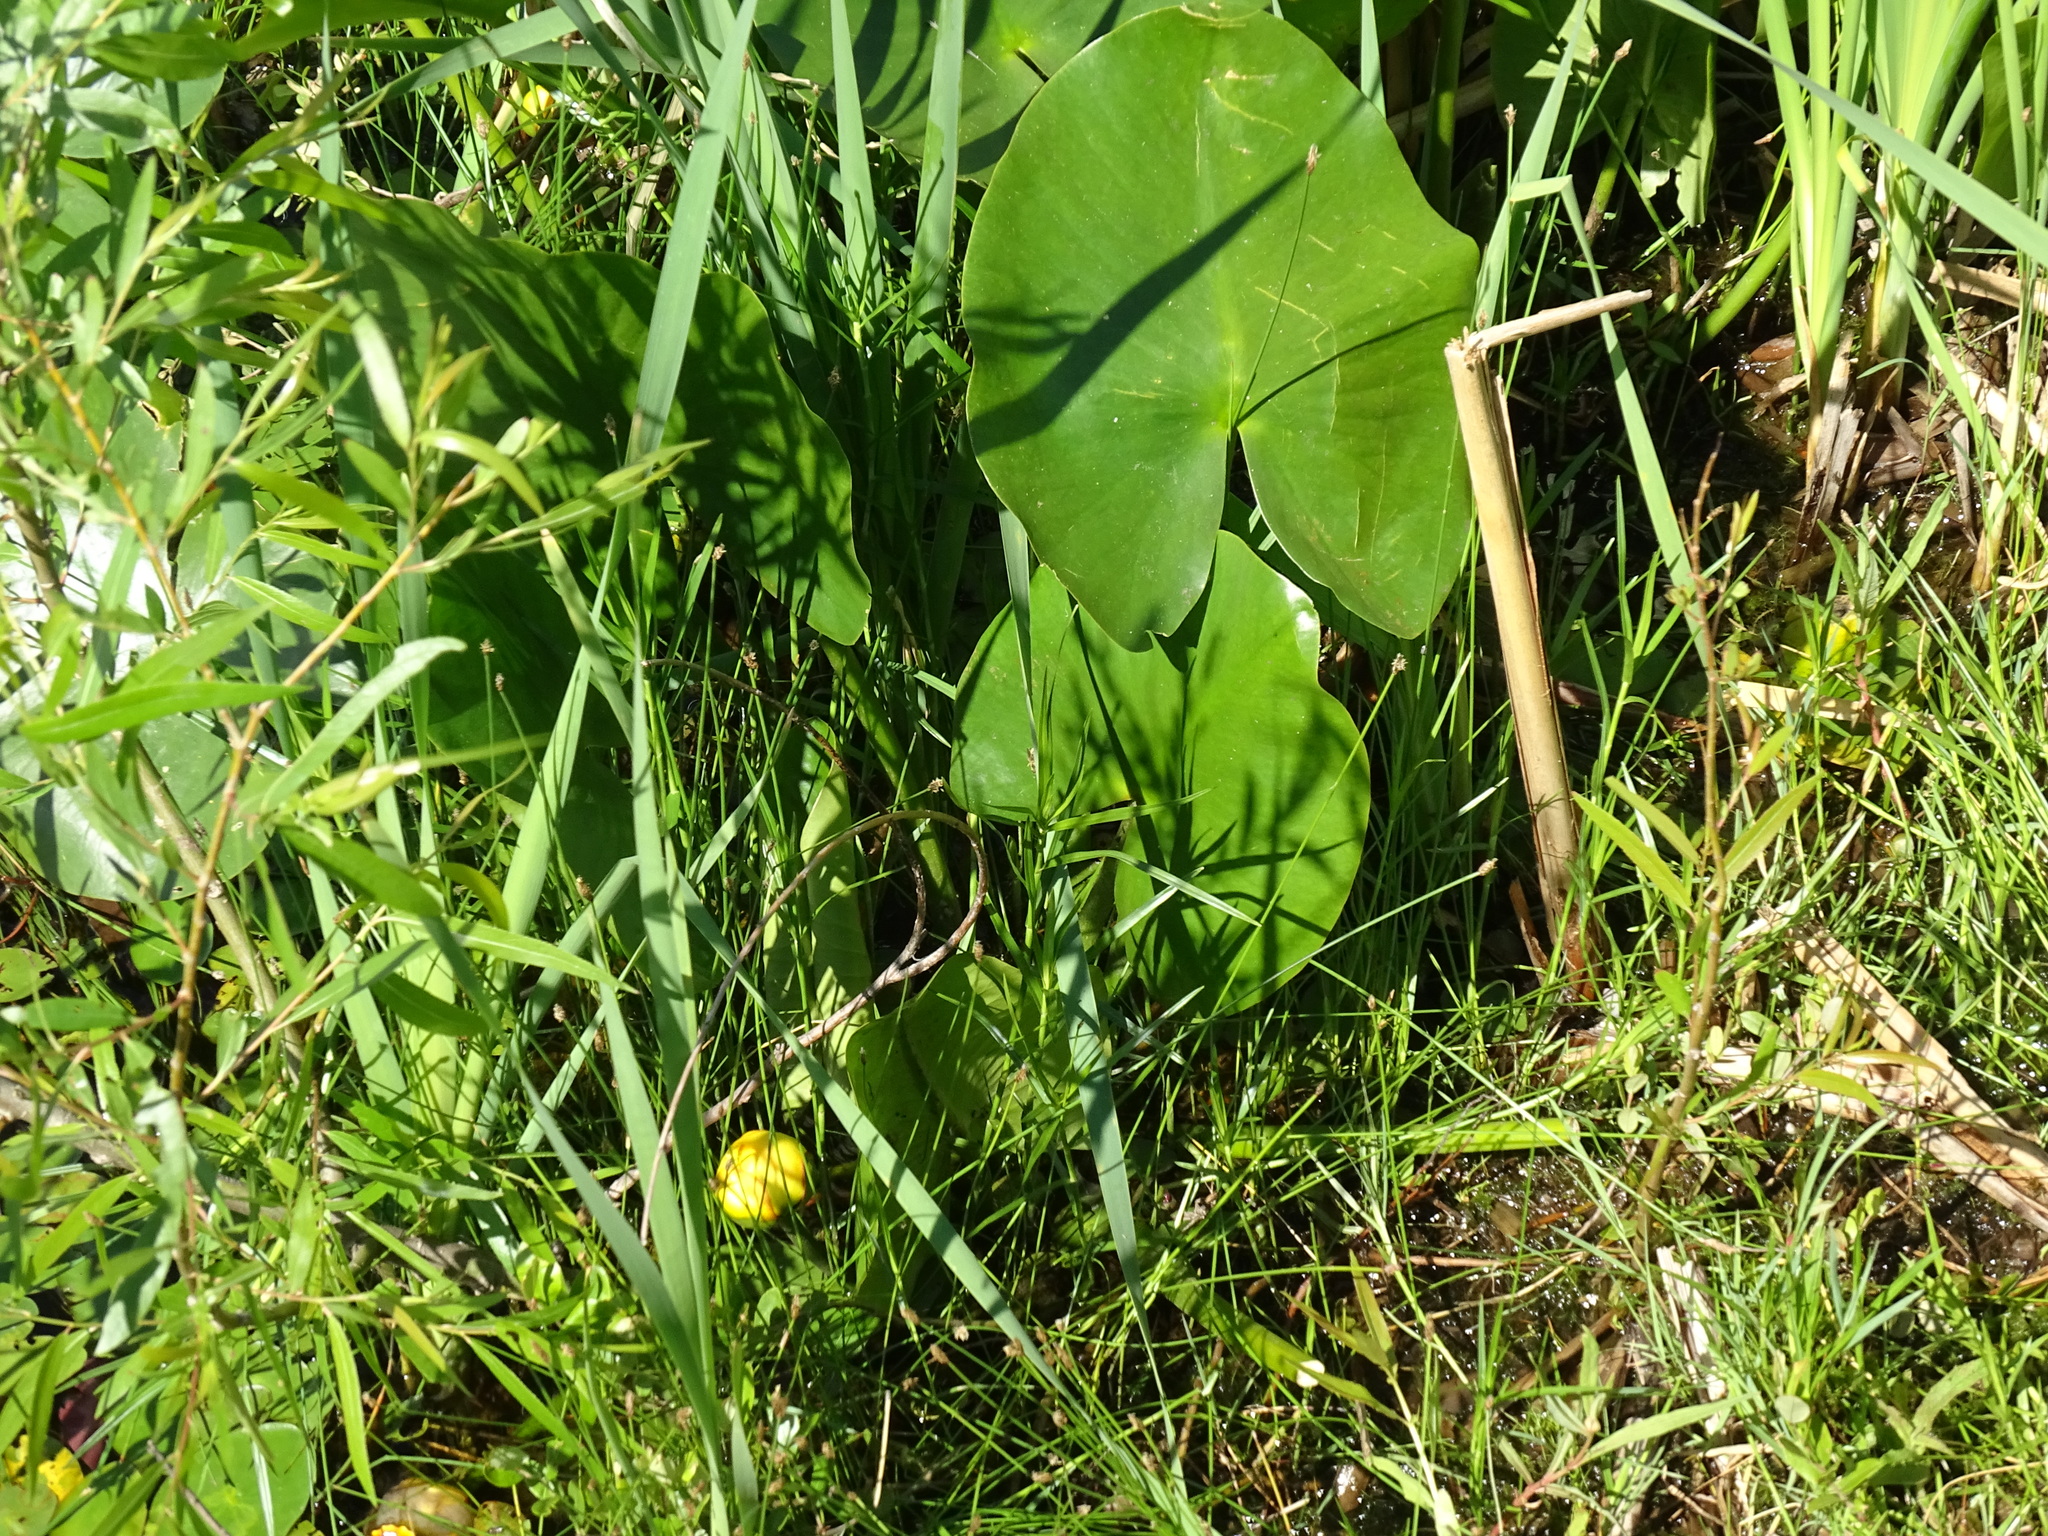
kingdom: Plantae
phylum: Tracheophyta
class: Magnoliopsida
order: Nymphaeales
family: Nymphaeaceae
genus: Nuphar
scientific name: Nuphar advena
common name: Spatter-dock
